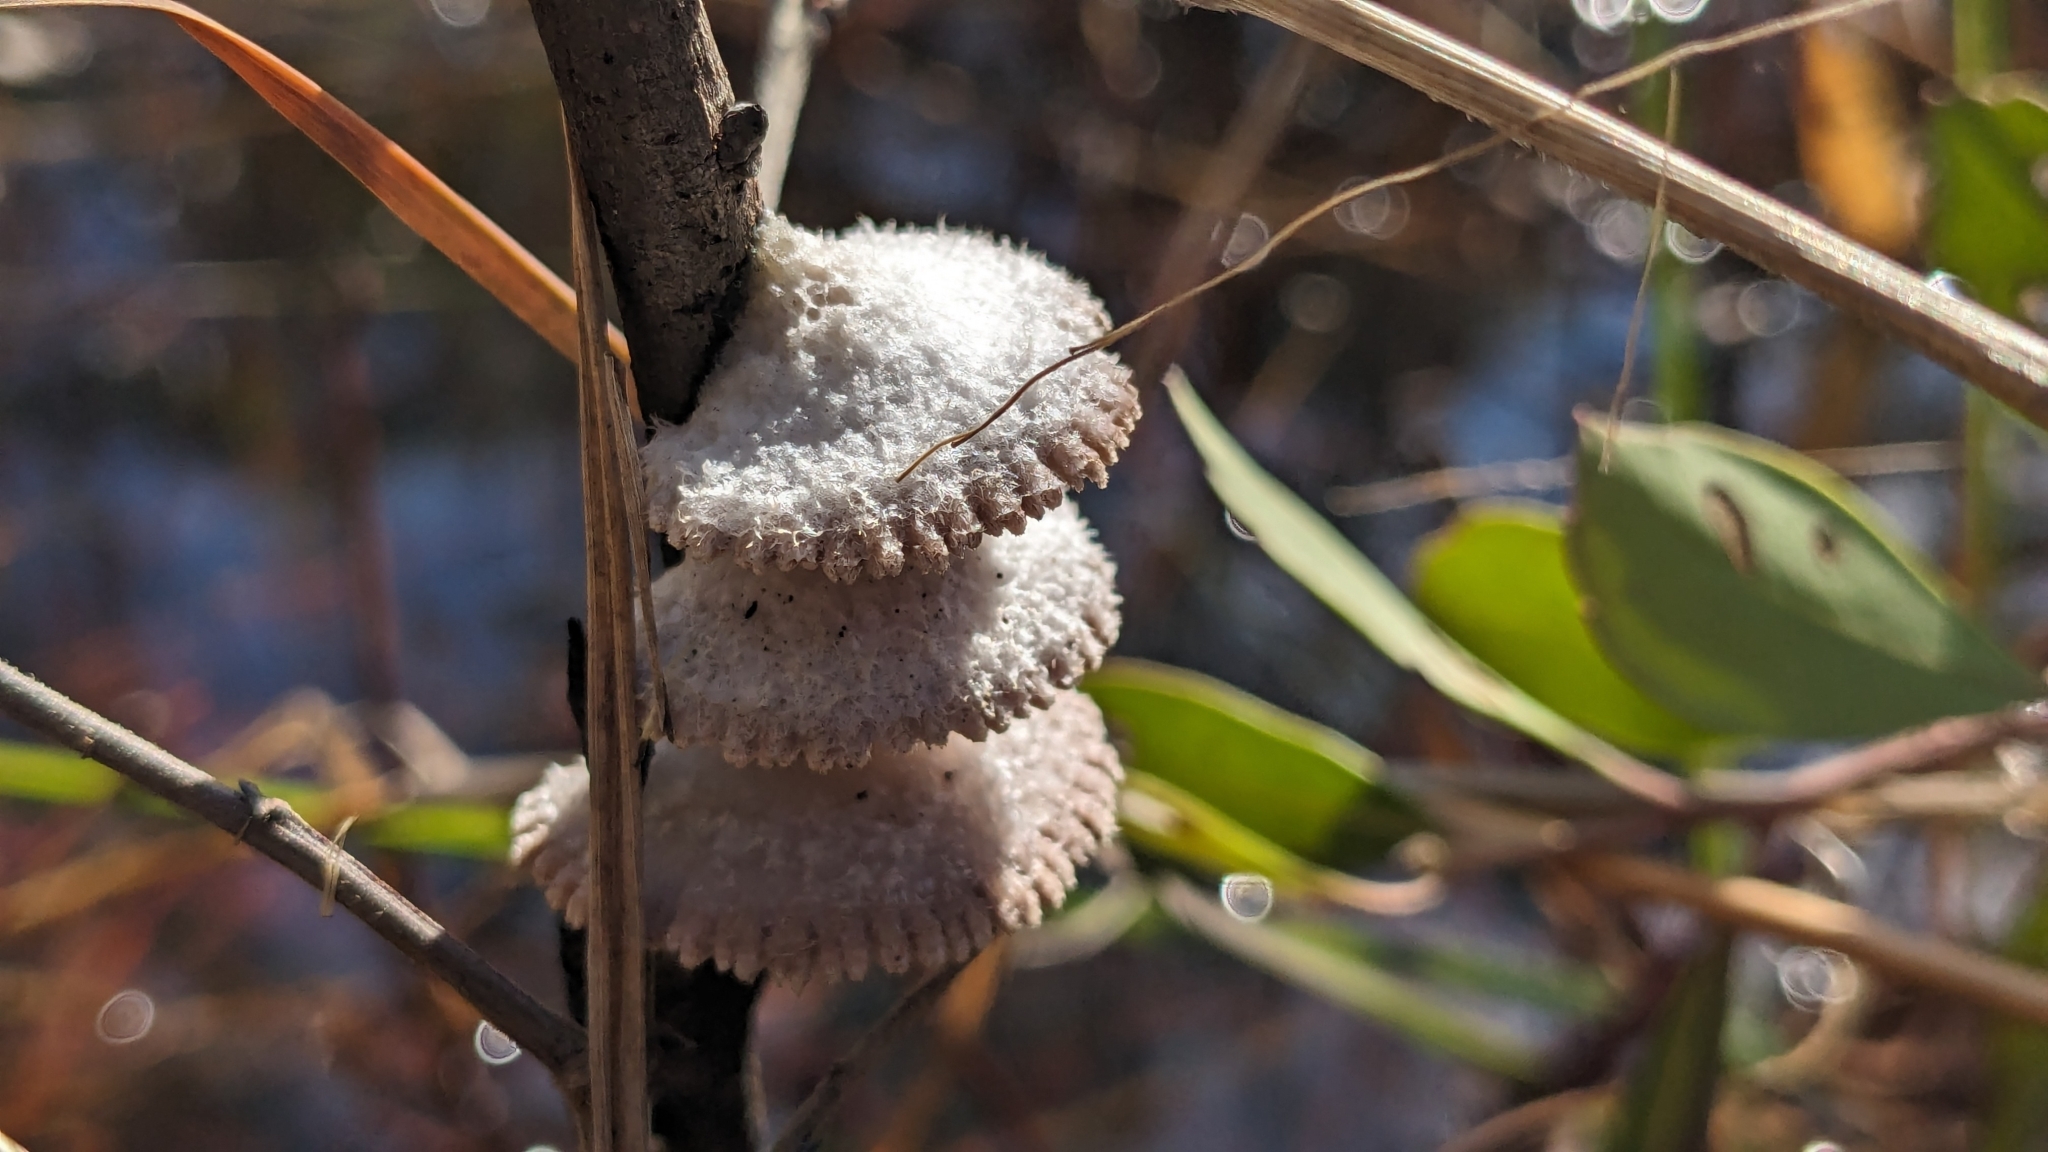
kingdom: Fungi
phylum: Basidiomycota
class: Agaricomycetes
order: Agaricales
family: Schizophyllaceae
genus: Schizophyllum
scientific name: Schizophyllum commune
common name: Common porecrust
